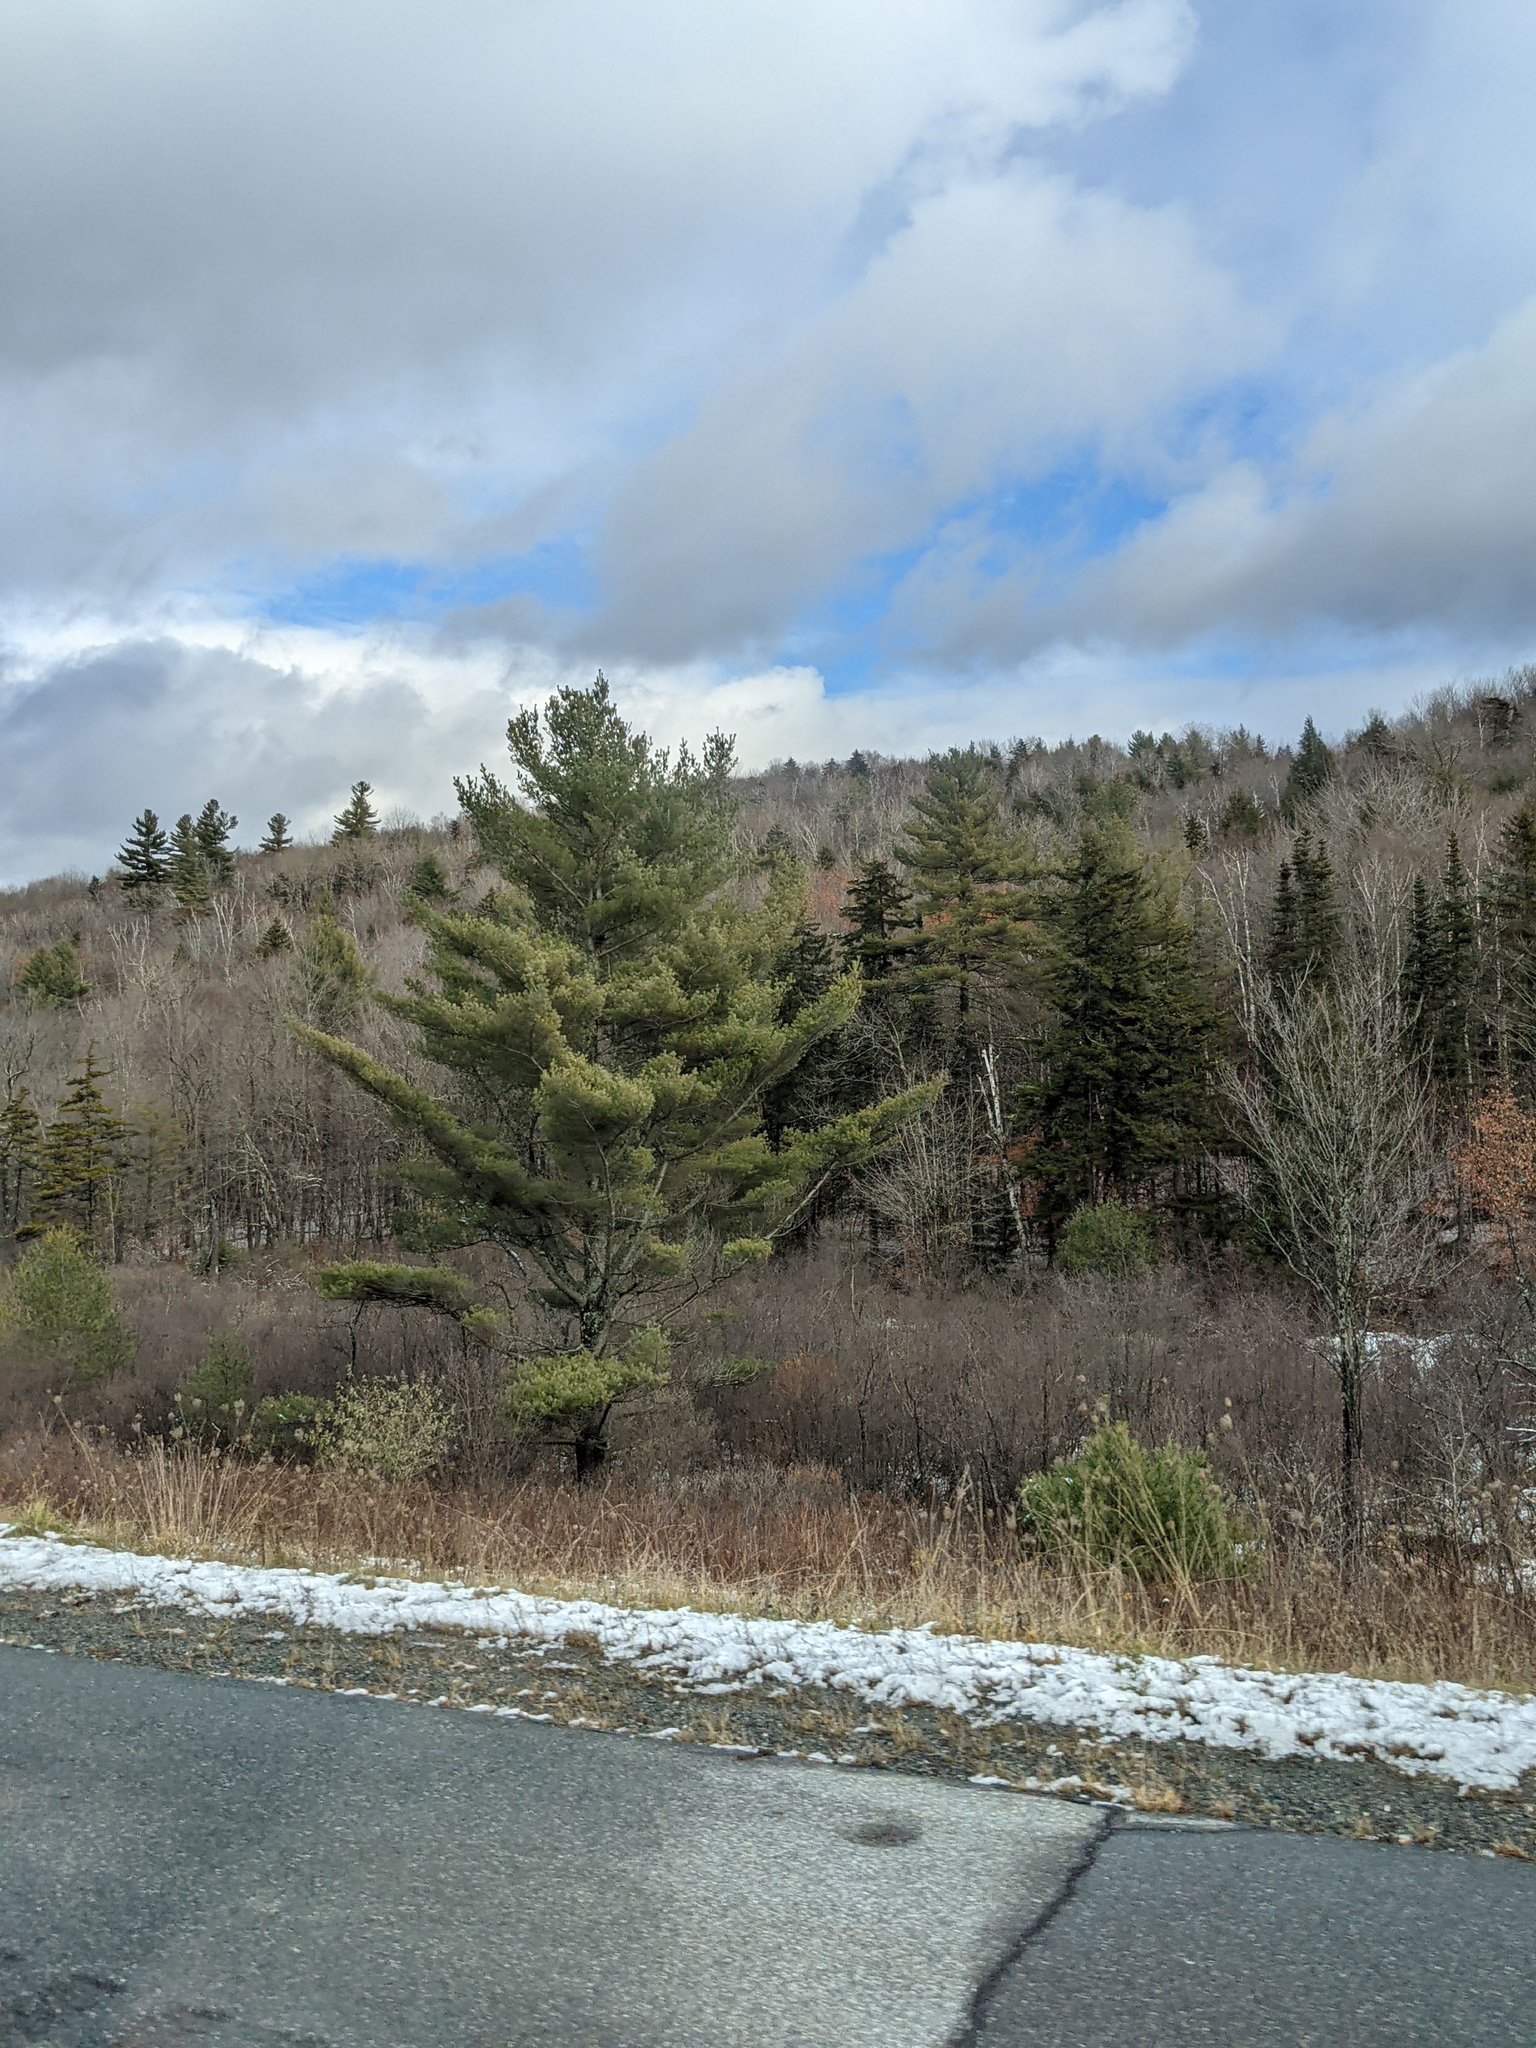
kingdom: Plantae
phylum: Tracheophyta
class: Pinopsida
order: Pinales
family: Pinaceae
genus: Pinus
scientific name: Pinus strobus
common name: Weymouth pine
